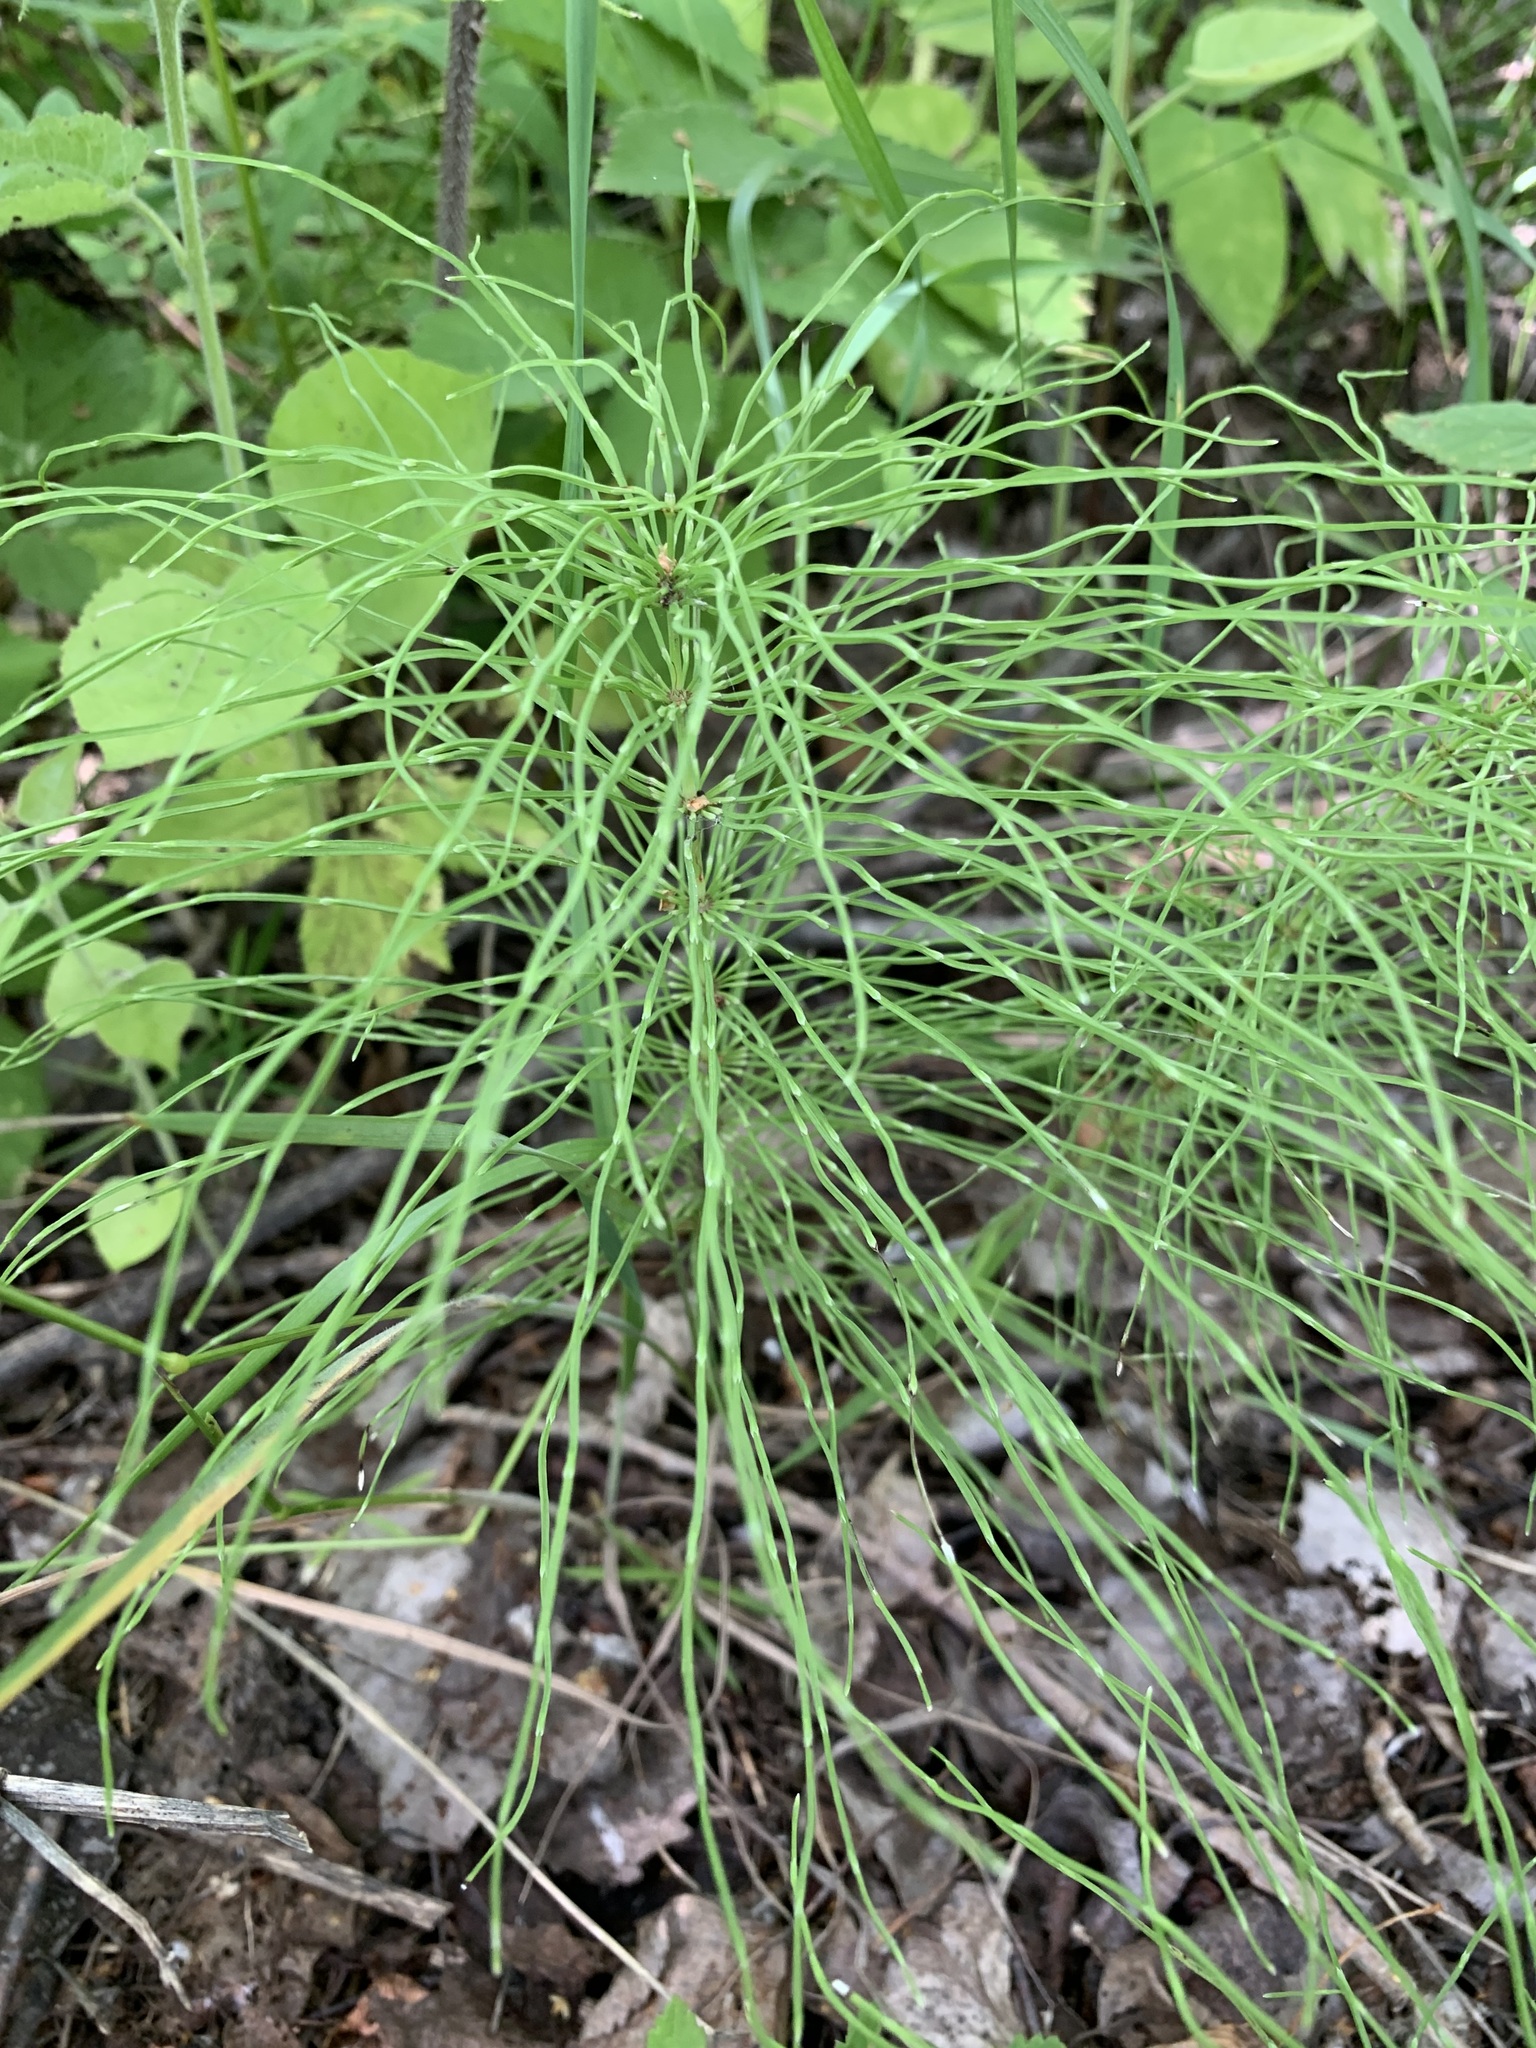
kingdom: Plantae
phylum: Tracheophyta
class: Polypodiopsida
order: Equisetales
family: Equisetaceae
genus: Equisetum
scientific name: Equisetum pratense
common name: Meadow horsetail
